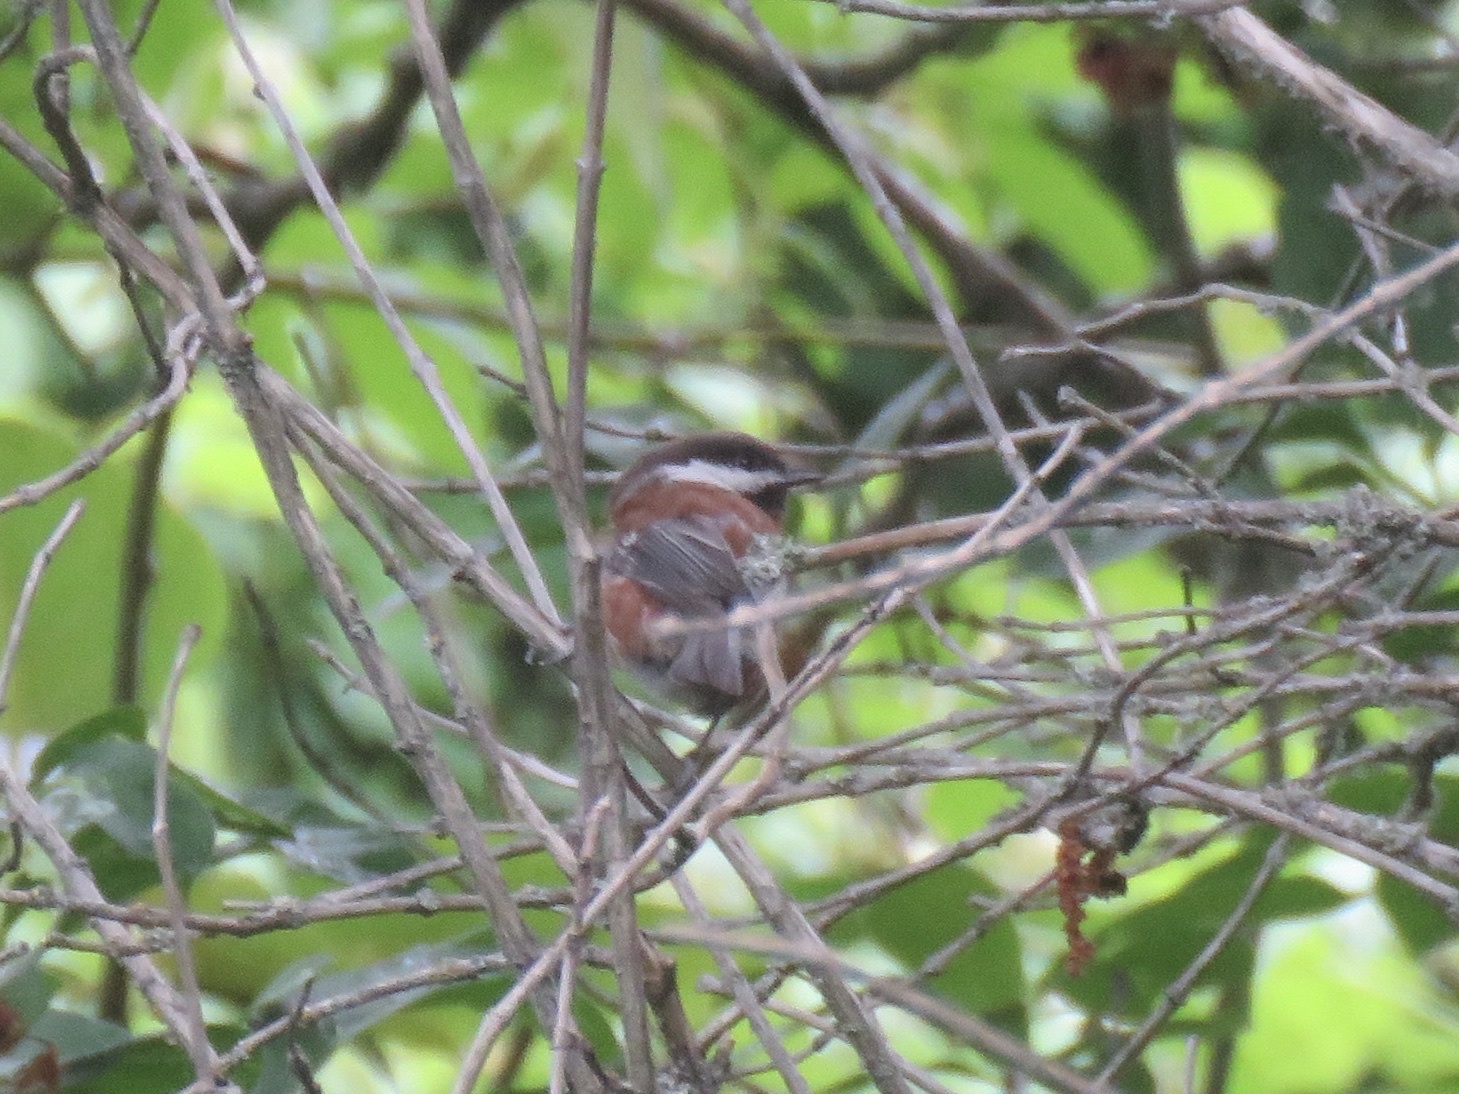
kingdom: Animalia
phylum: Chordata
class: Aves
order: Passeriformes
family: Paridae
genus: Poecile
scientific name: Poecile rufescens
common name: Chestnut-backed chickadee
